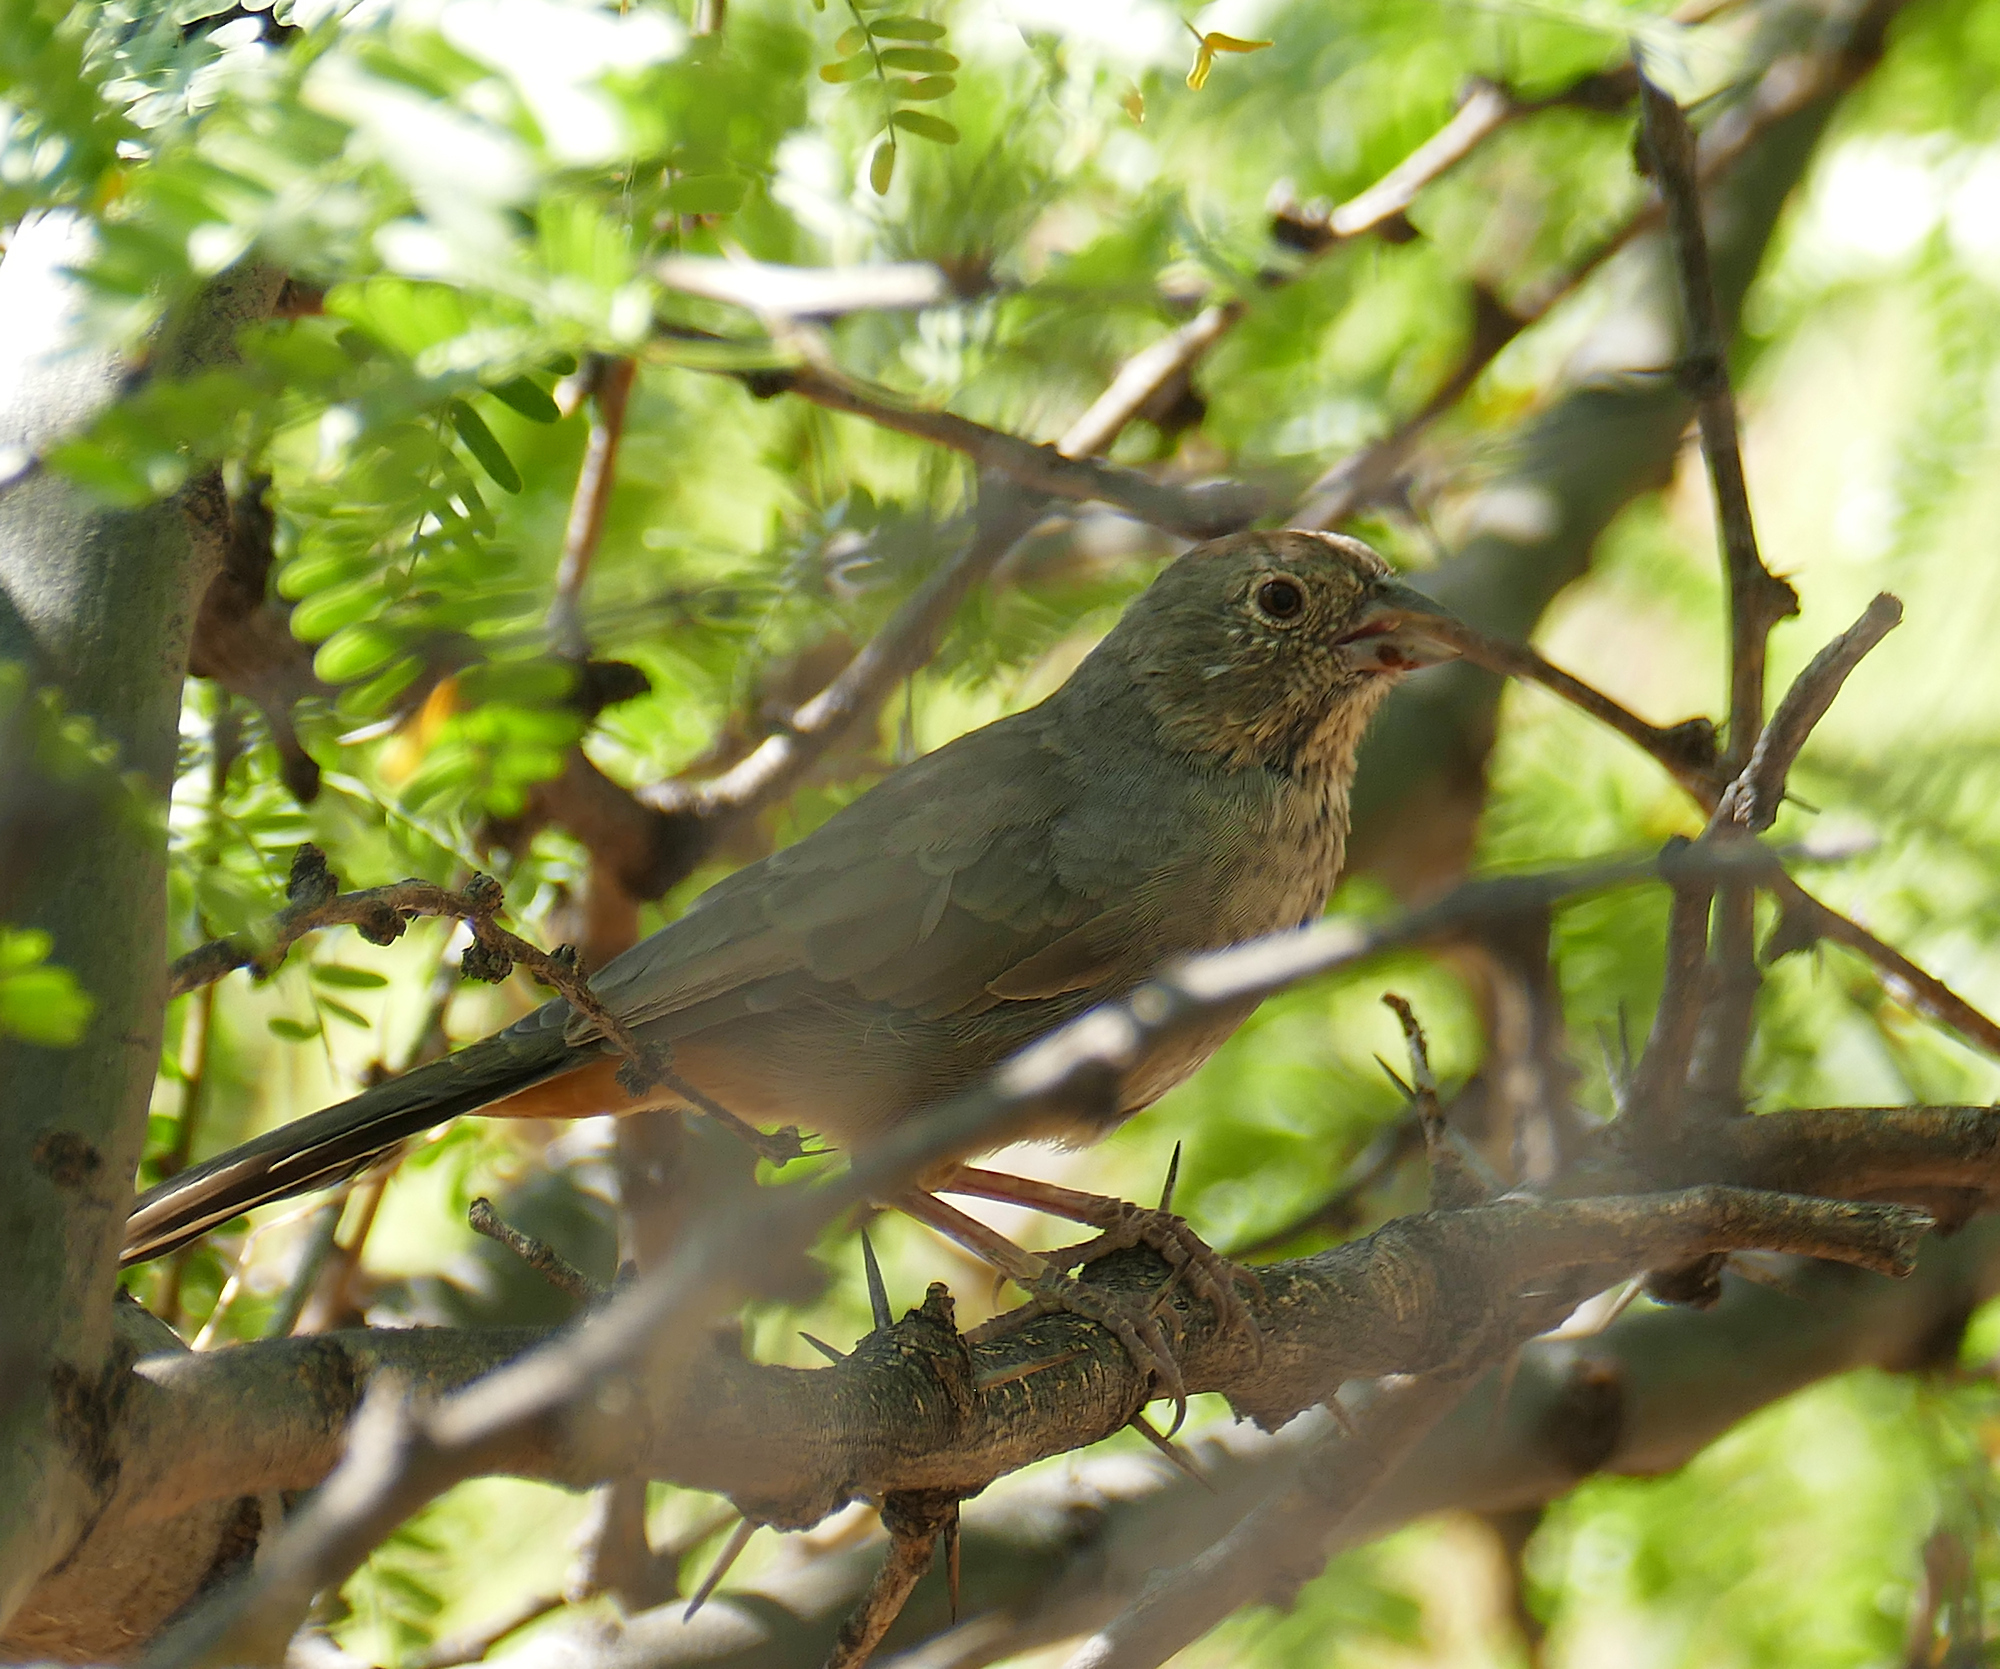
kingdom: Animalia
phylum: Chordata
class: Aves
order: Passeriformes
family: Passerellidae
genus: Melozone
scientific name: Melozone fusca
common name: Canyon towhee
